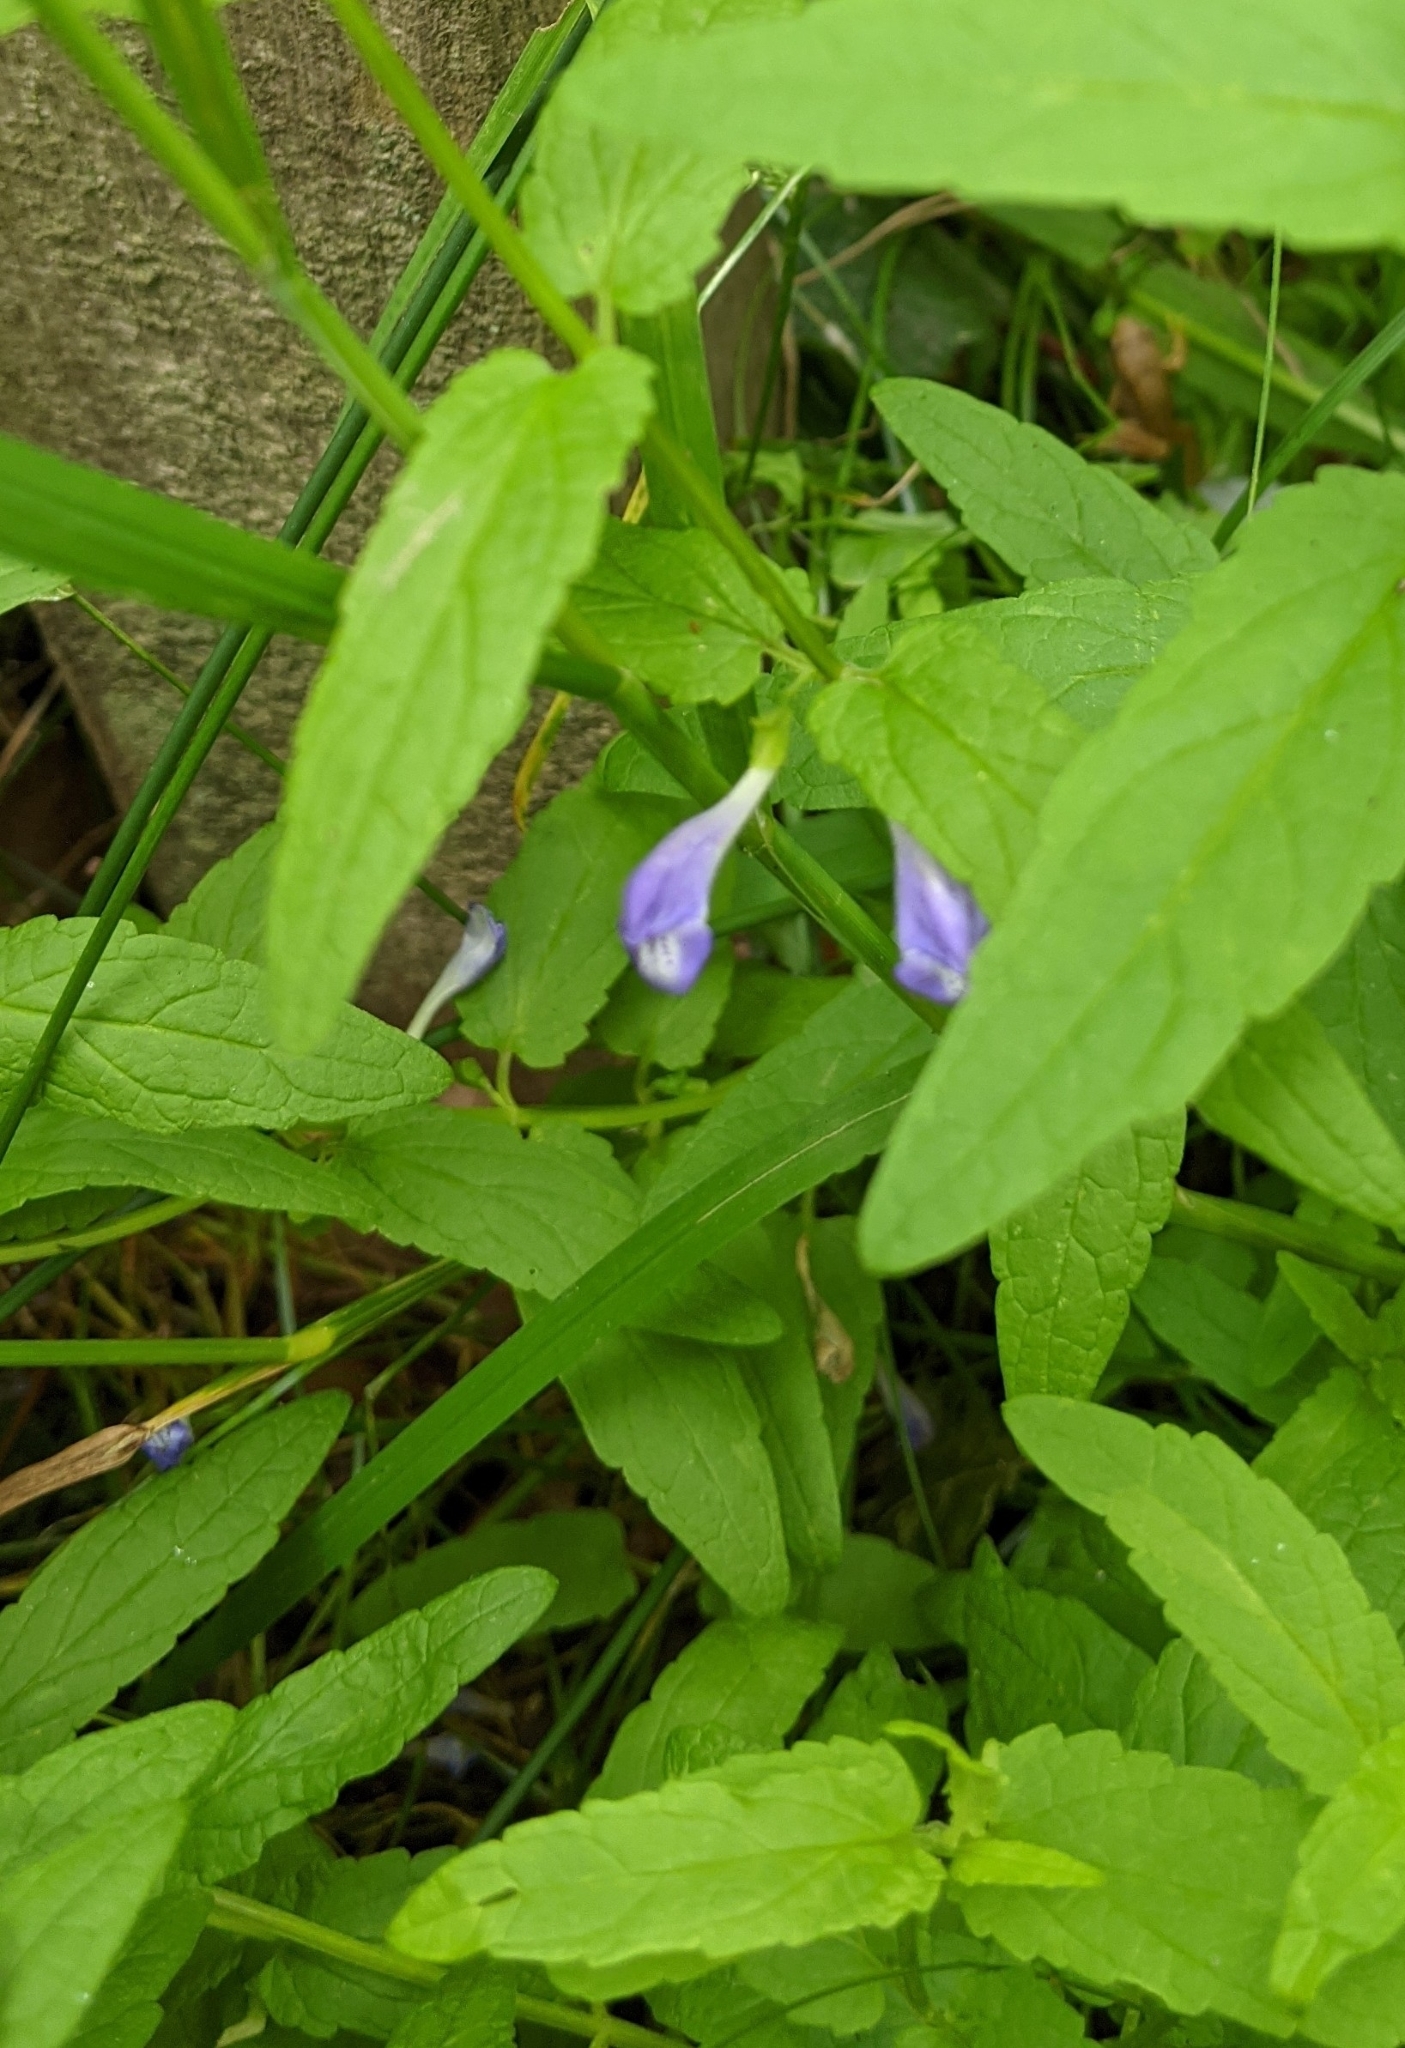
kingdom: Plantae
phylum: Tracheophyta
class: Magnoliopsida
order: Lamiales
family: Lamiaceae
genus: Scutellaria
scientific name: Scutellaria galericulata
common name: Skullcap
